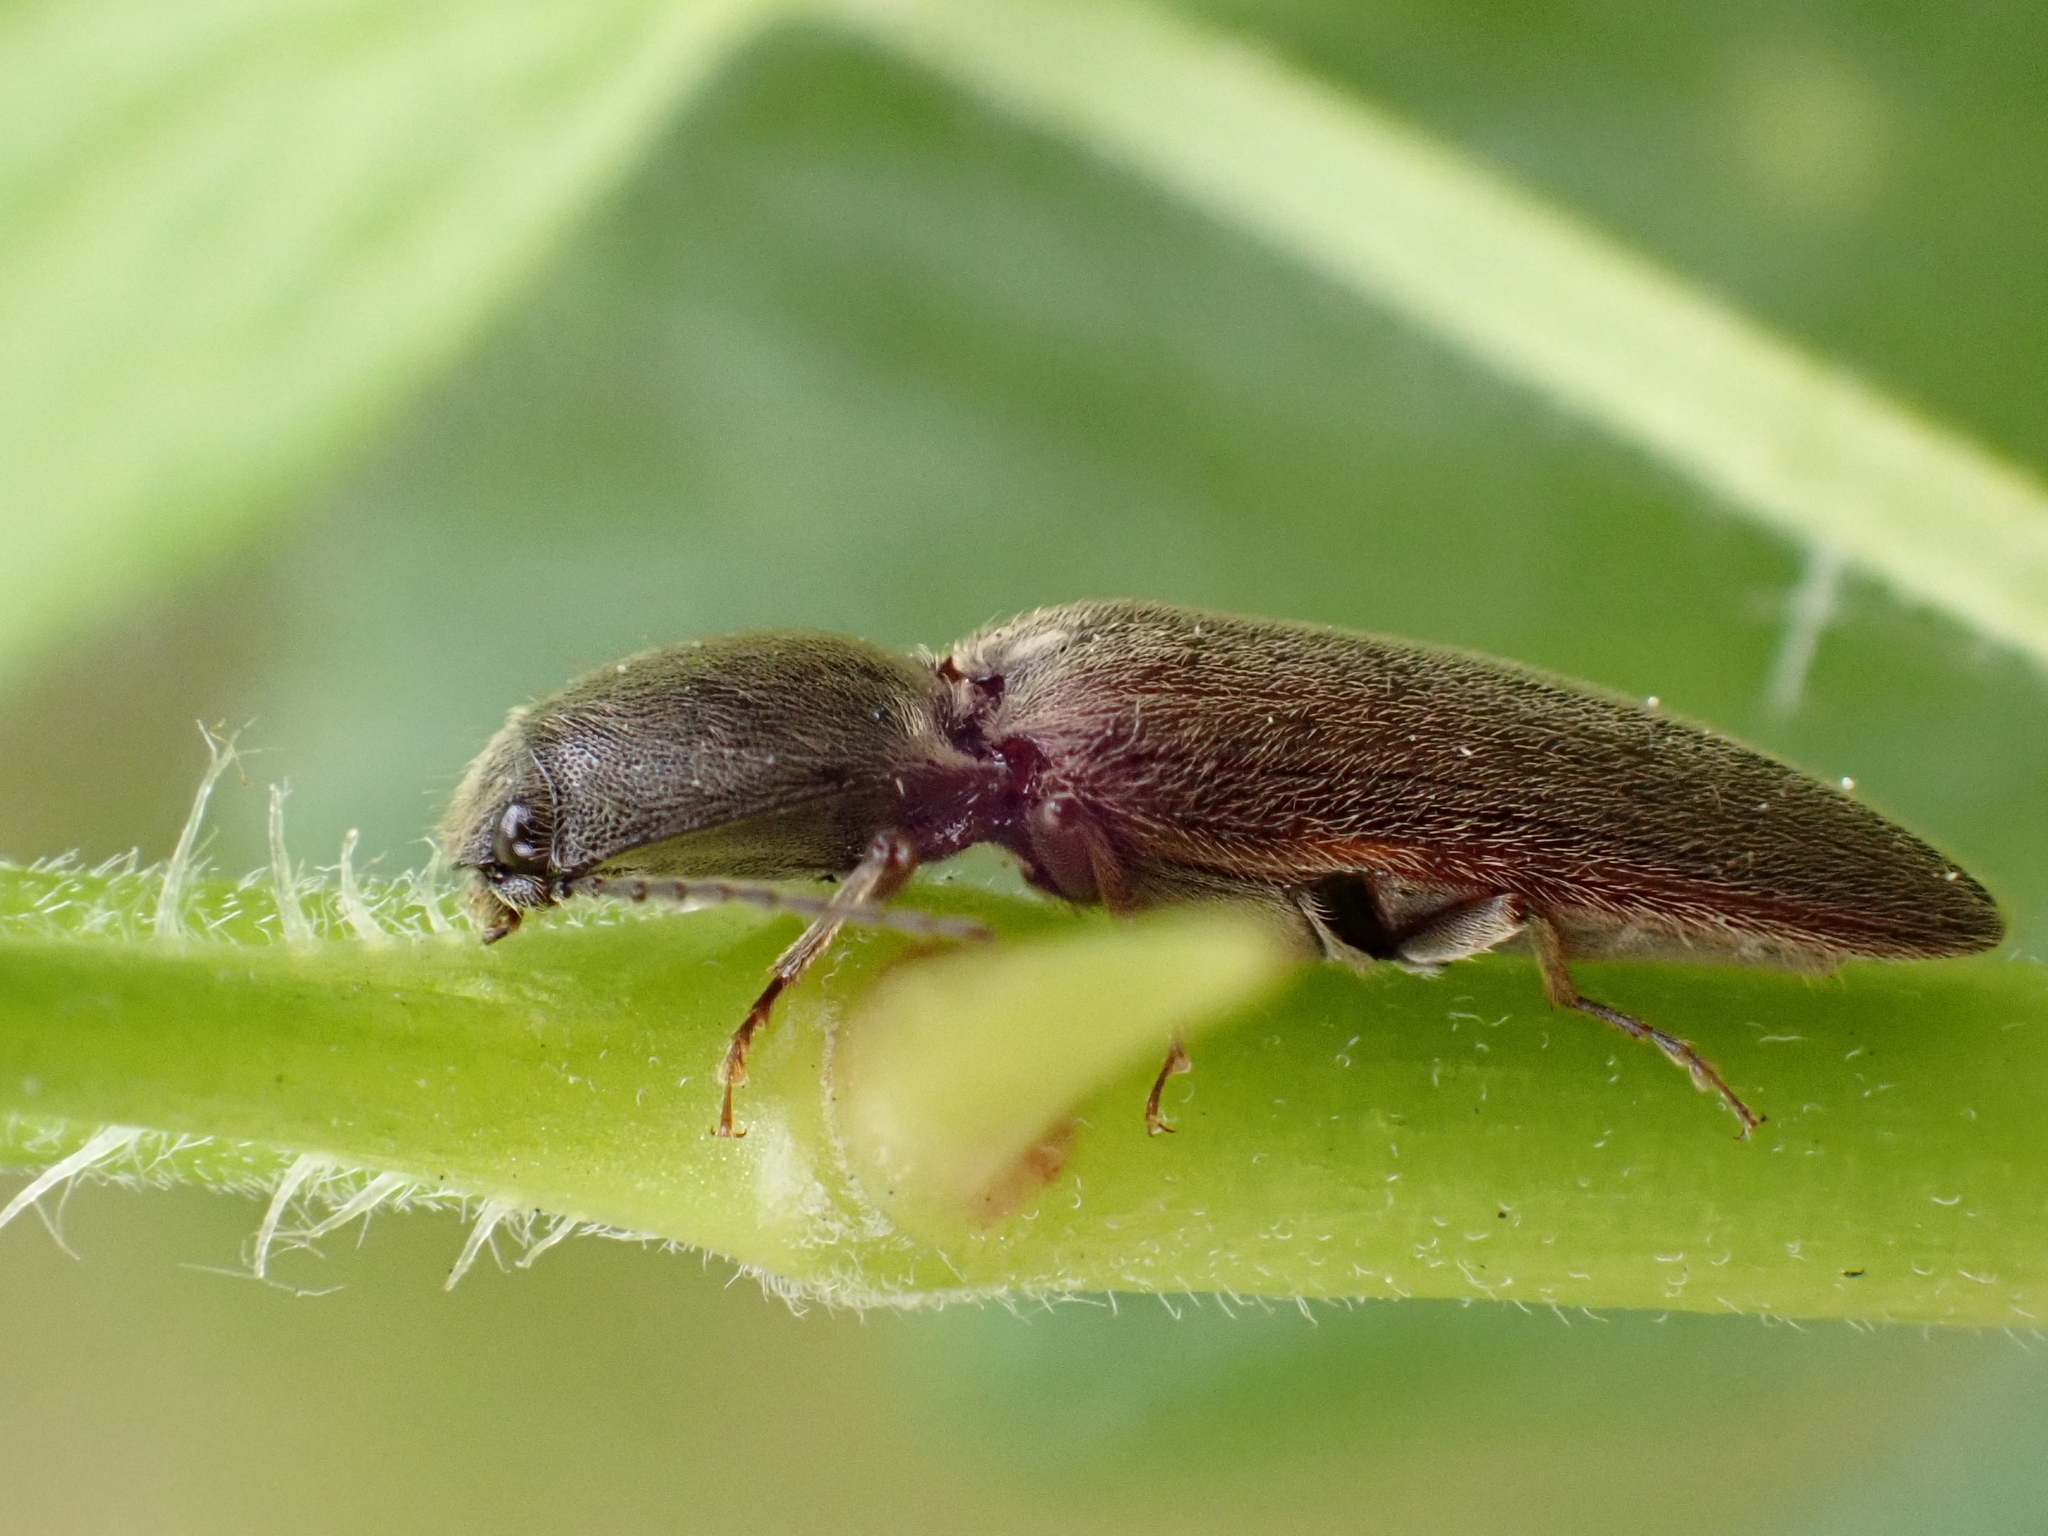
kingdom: Animalia
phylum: Arthropoda
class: Insecta
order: Coleoptera
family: Elateridae
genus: Athous
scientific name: Athous haemorrhoidalis
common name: Red-brown click beetle
